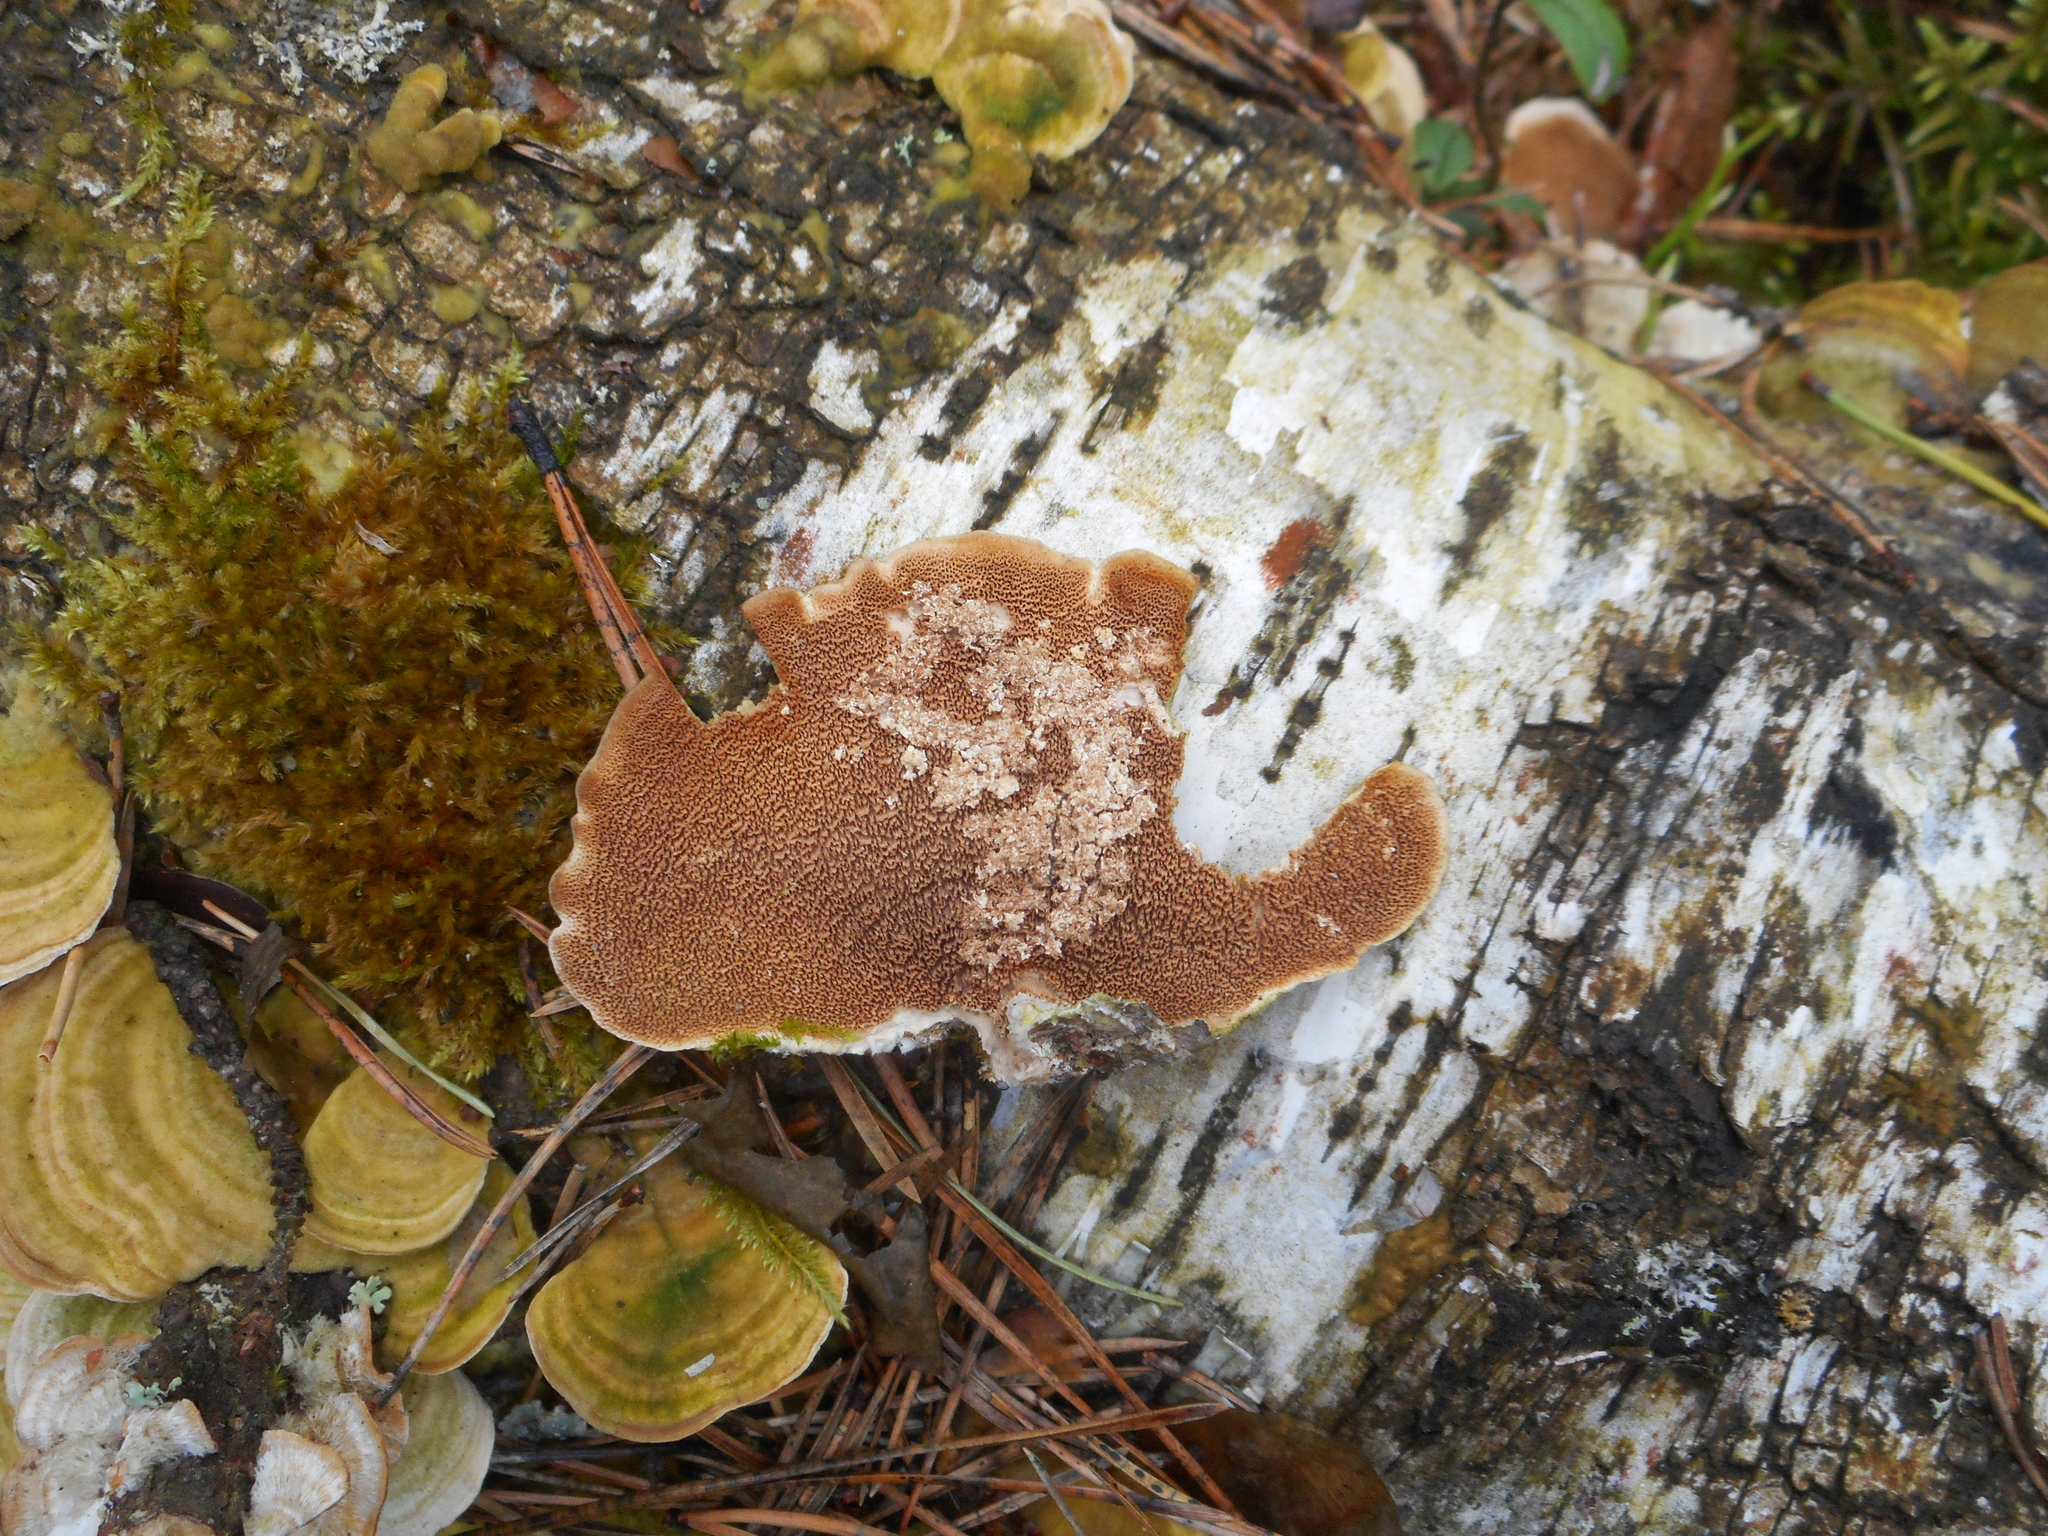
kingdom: Fungi
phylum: Basidiomycota
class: Agaricomycetes
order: Hymenochaetales
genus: Trichaptum
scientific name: Trichaptum biforme
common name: Violet-toothed polypore
